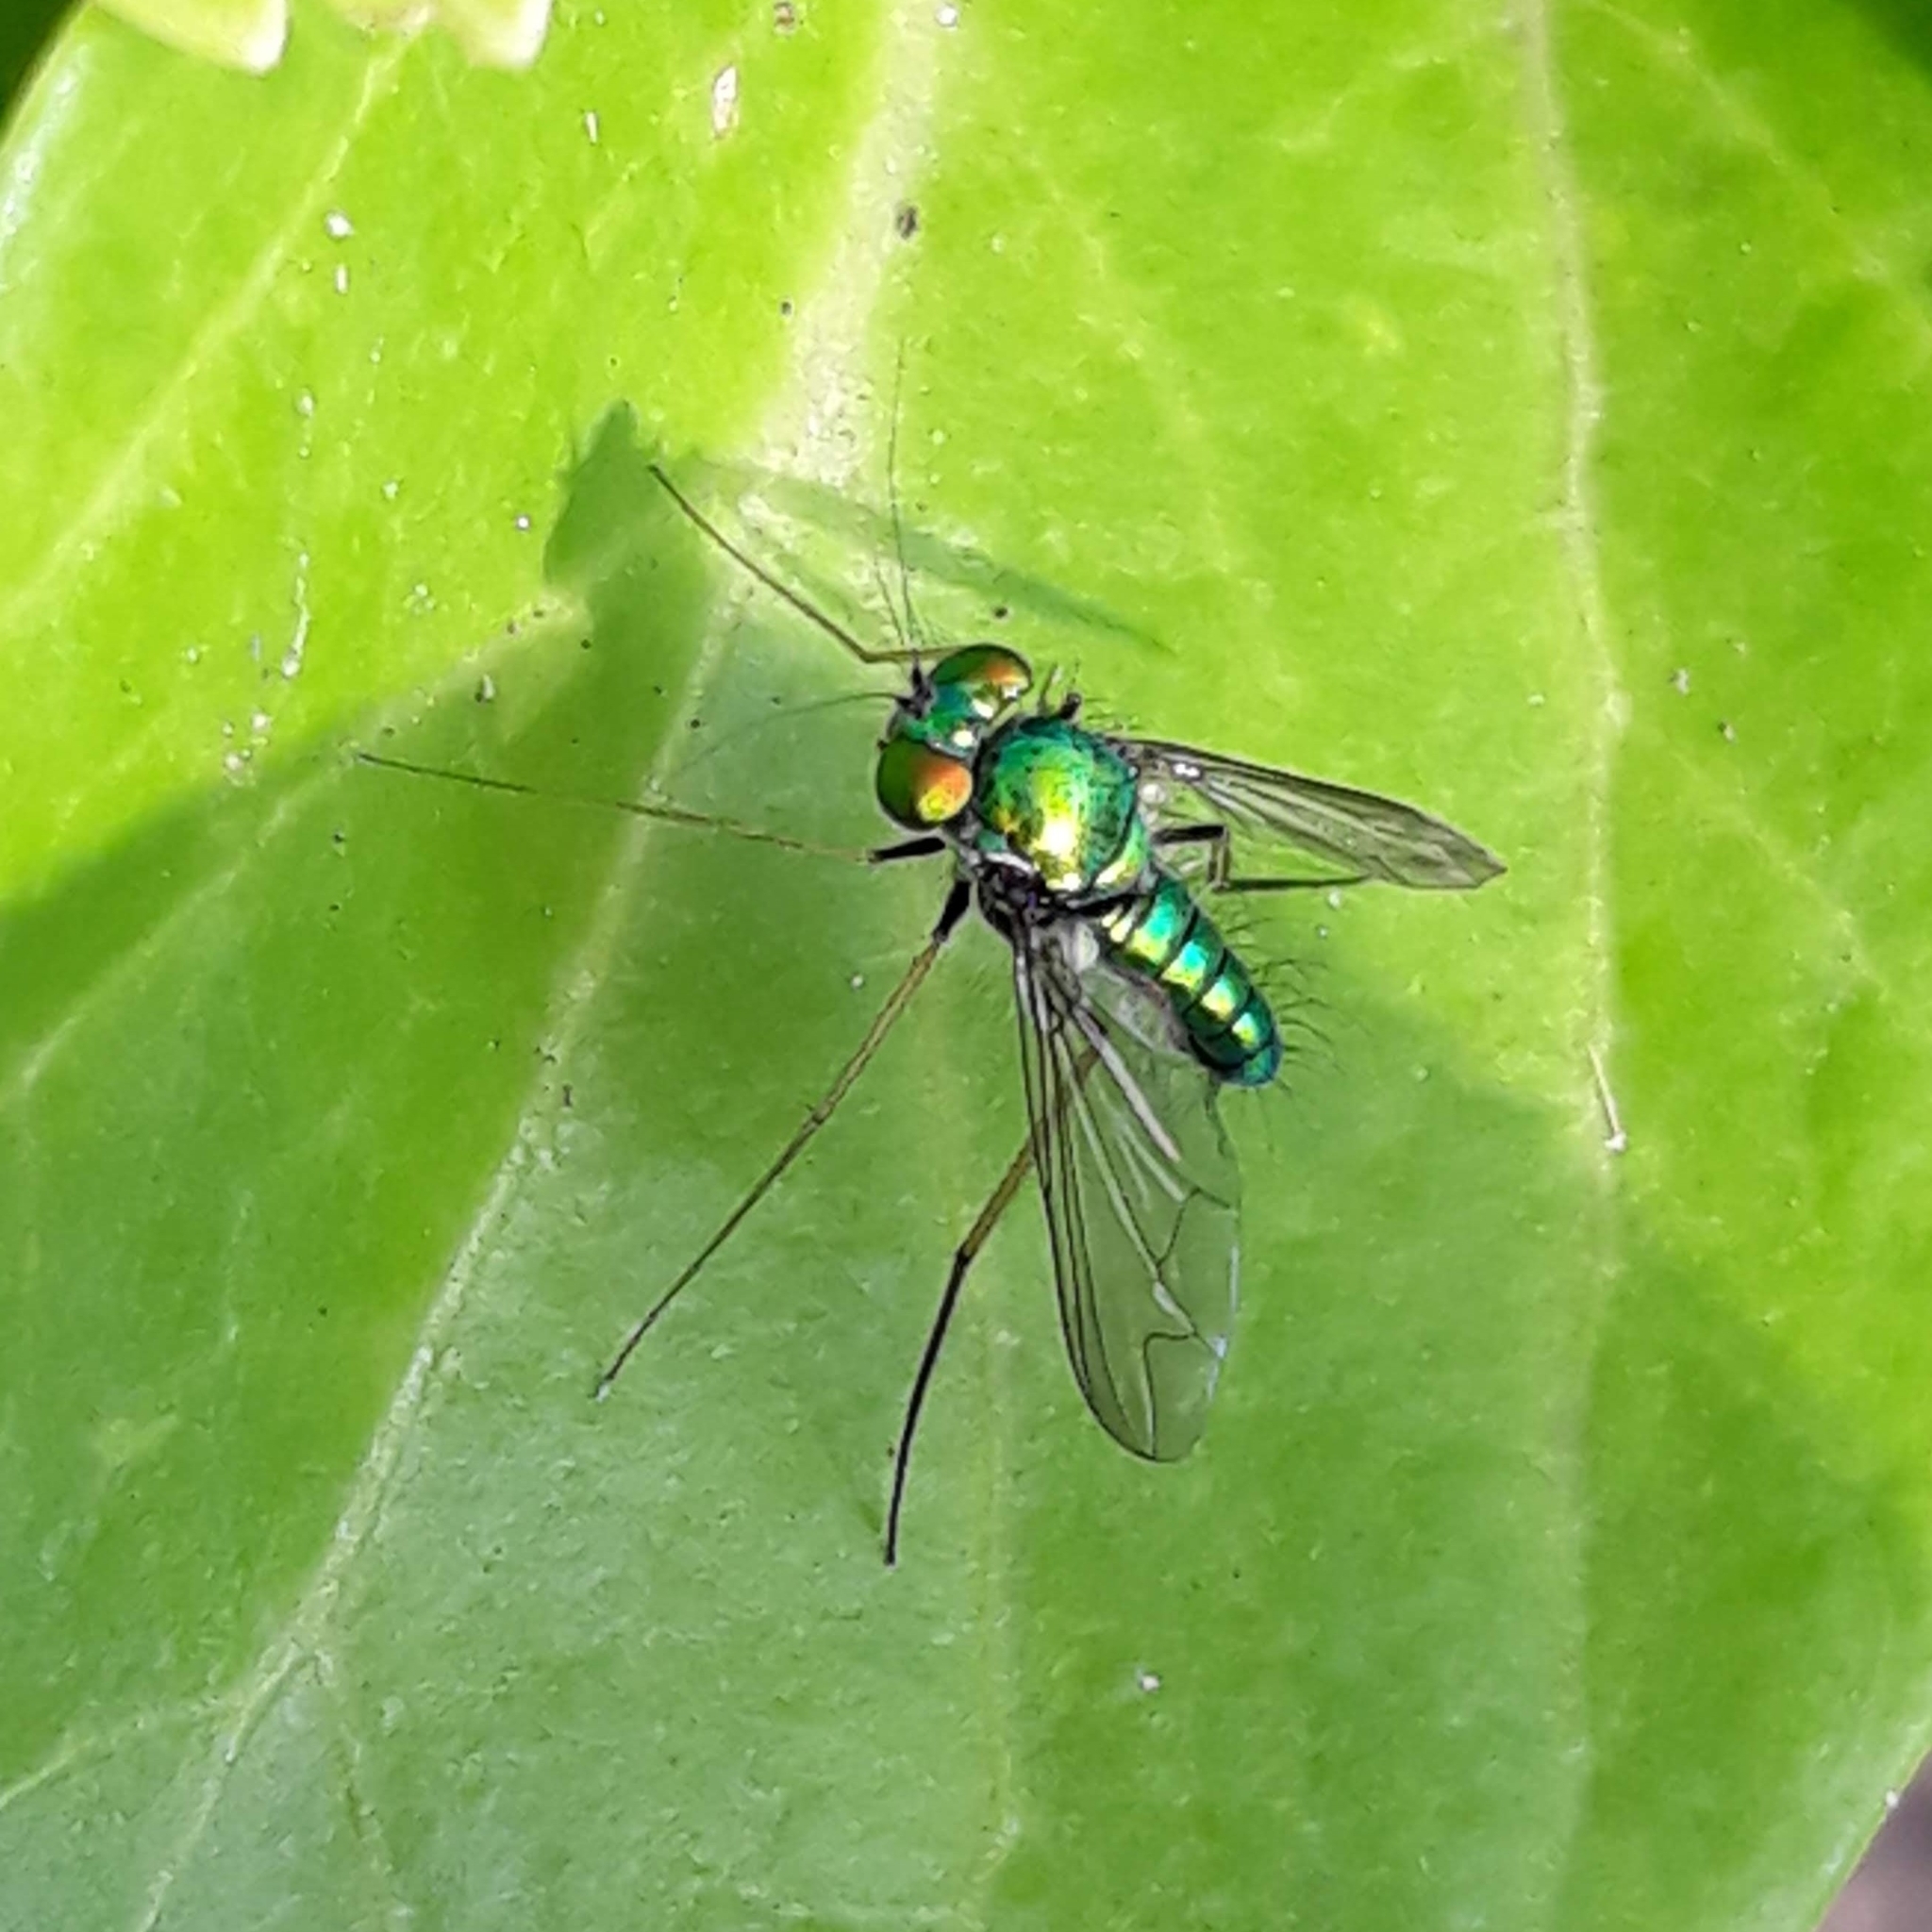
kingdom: Animalia
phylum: Arthropoda
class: Insecta
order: Diptera
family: Dolichopodidae
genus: Condylostylus
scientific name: Condylostylus
